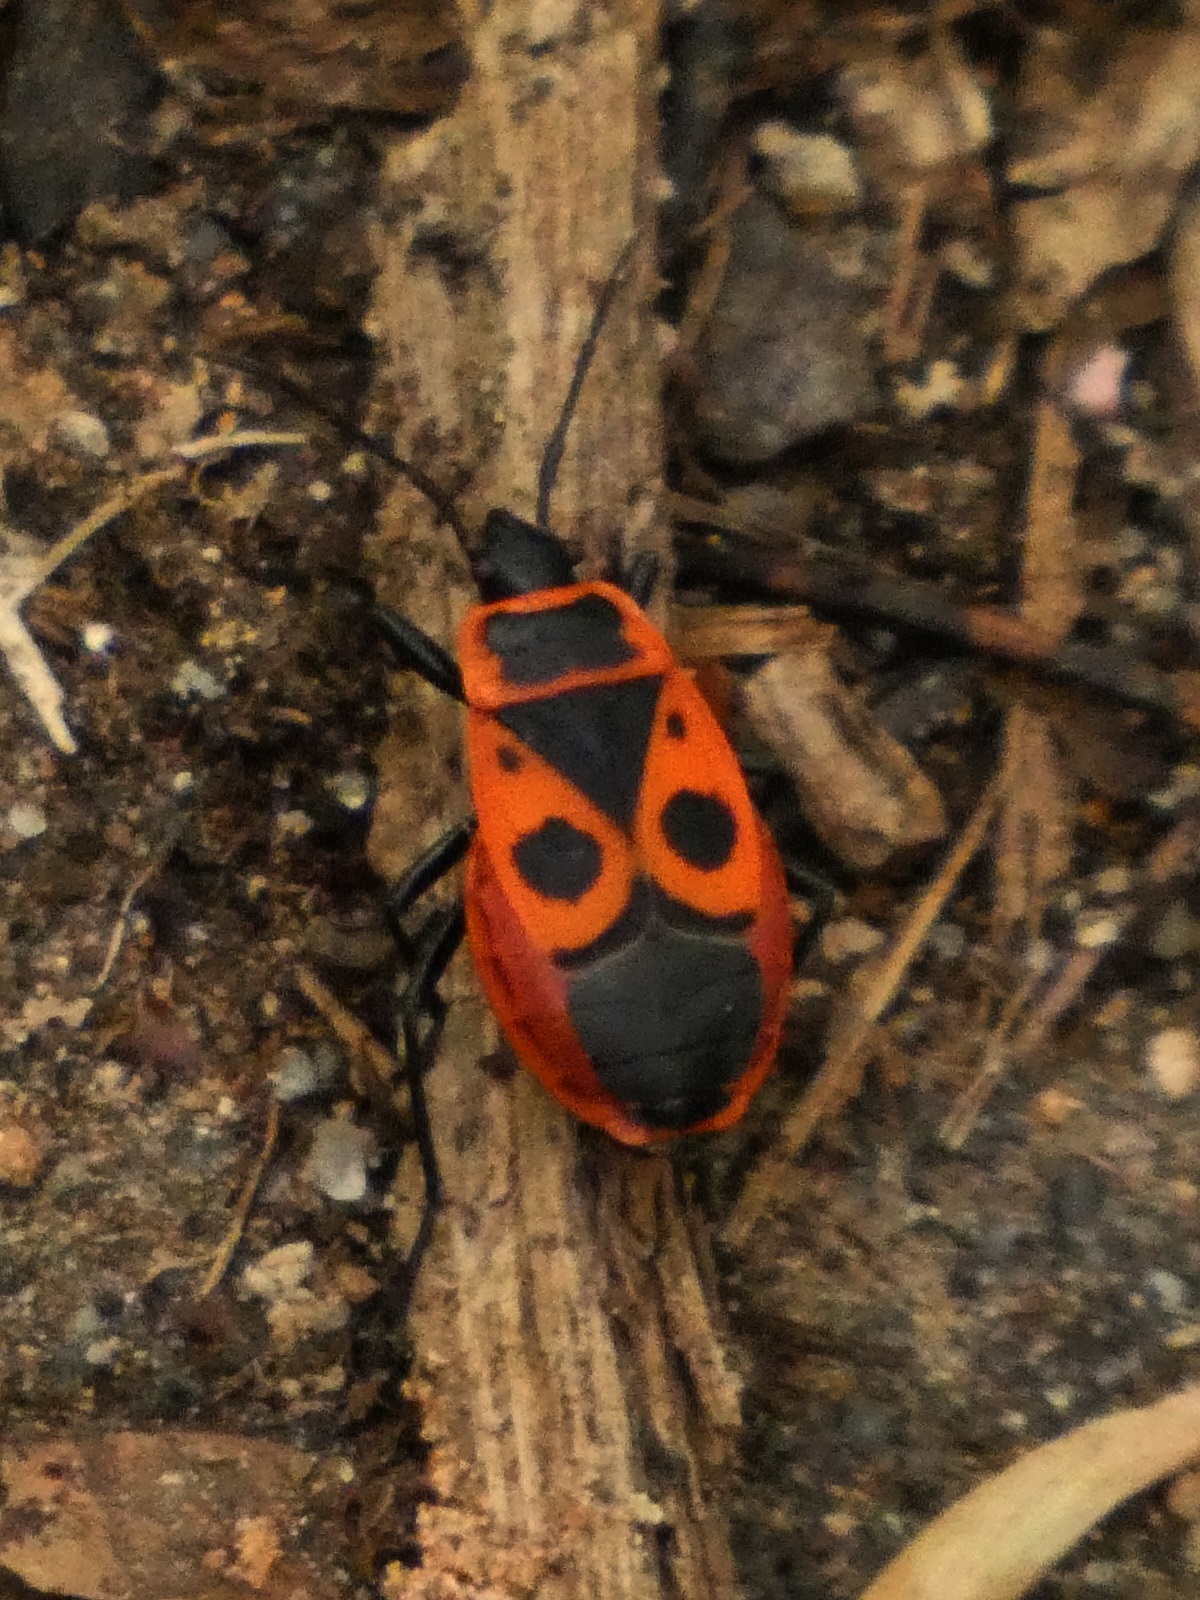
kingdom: Animalia
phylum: Arthropoda
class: Insecta
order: Hemiptera
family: Pyrrhocoridae
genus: Pyrrhocoris
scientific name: Pyrrhocoris apterus
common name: Firebug
